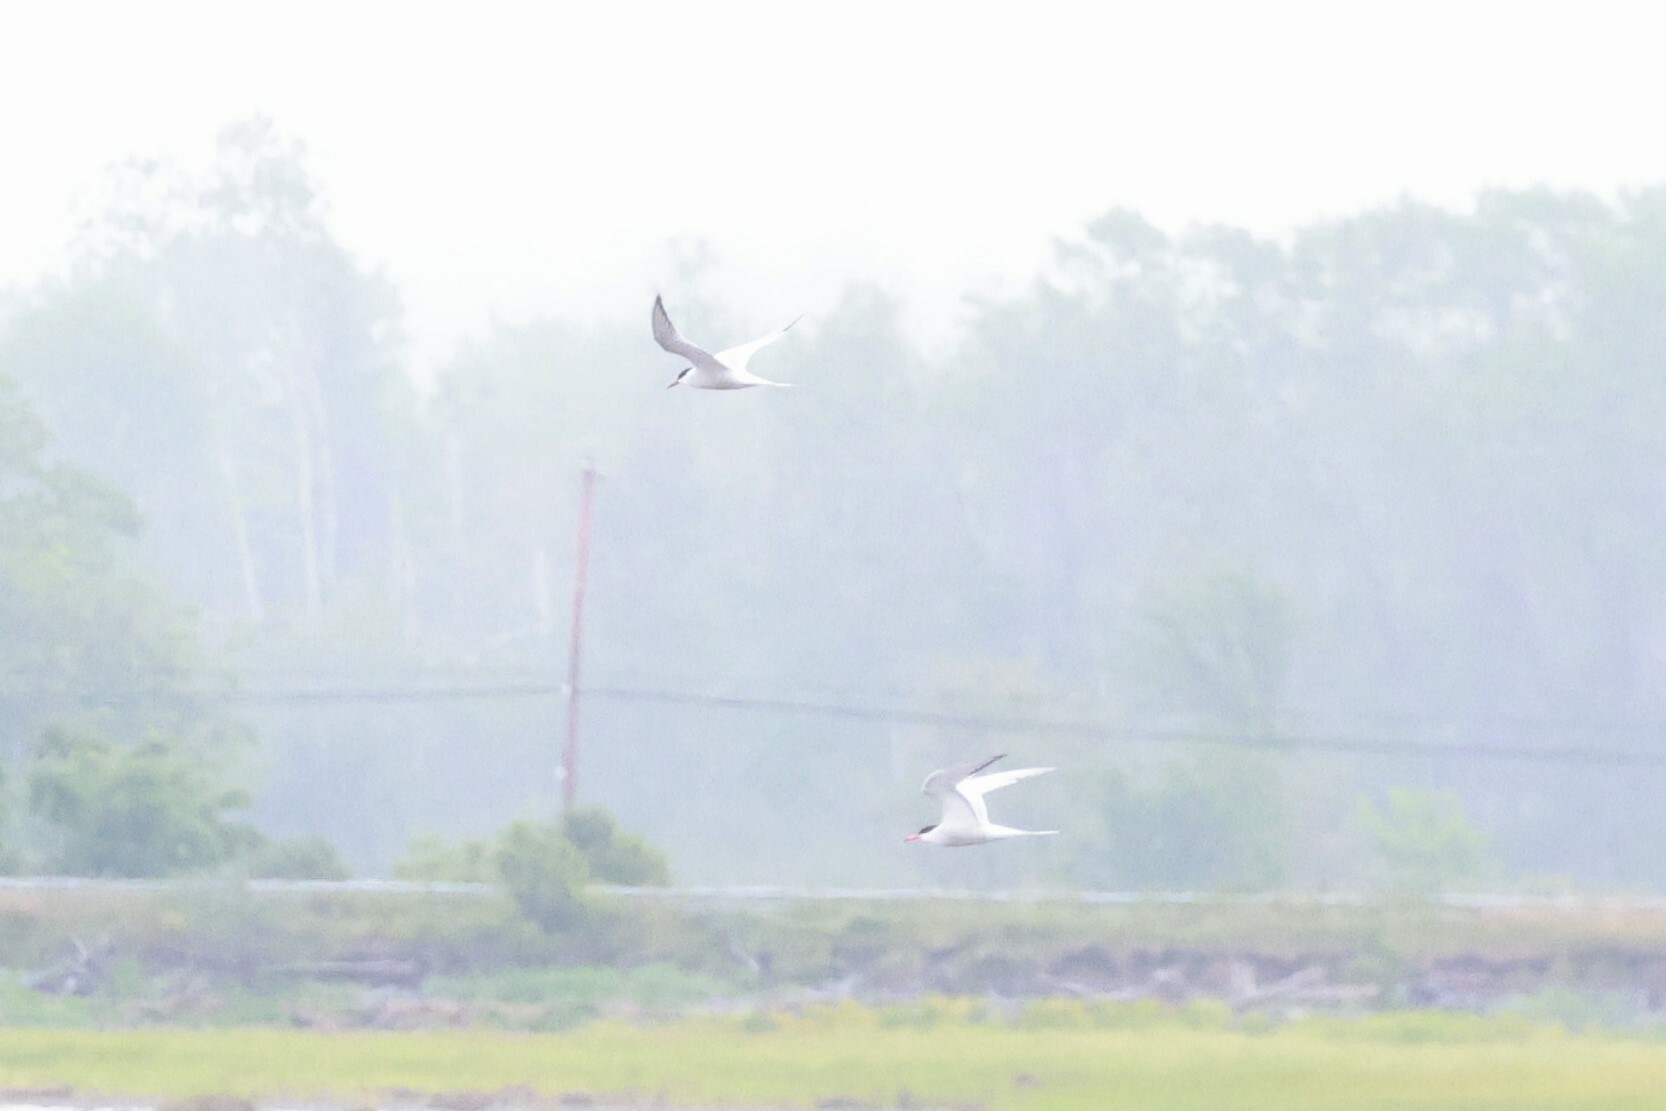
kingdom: Animalia
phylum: Chordata
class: Aves
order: Charadriiformes
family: Laridae
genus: Sterna
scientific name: Sterna hirundo
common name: Common tern
